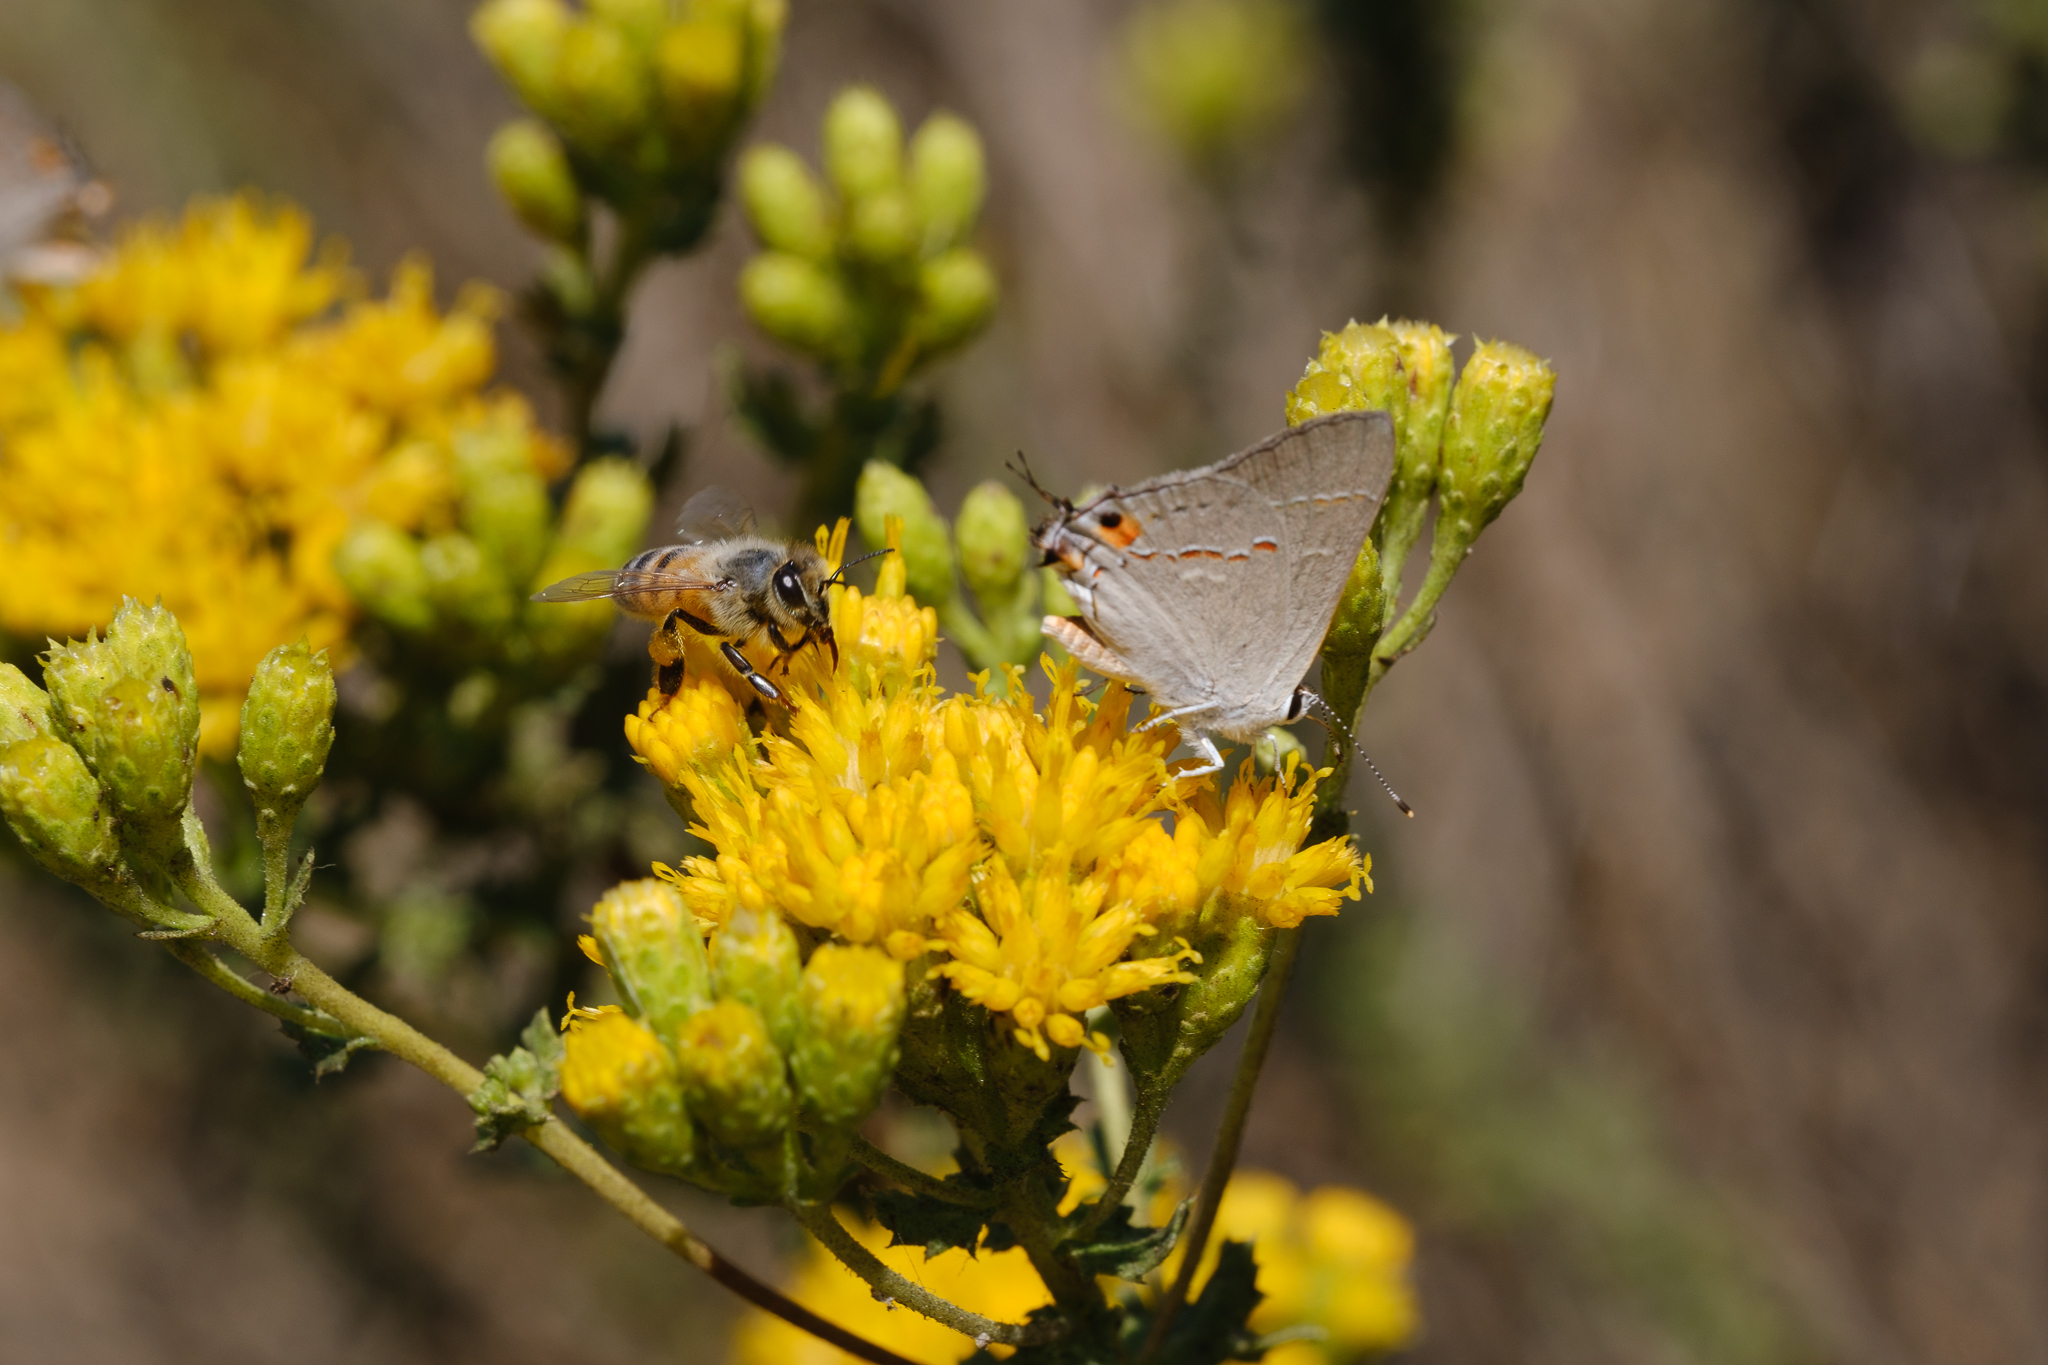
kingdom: Animalia
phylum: Arthropoda
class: Insecta
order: Lepidoptera
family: Lycaenidae
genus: Strymon
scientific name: Strymon melinus
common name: Gray hairstreak
